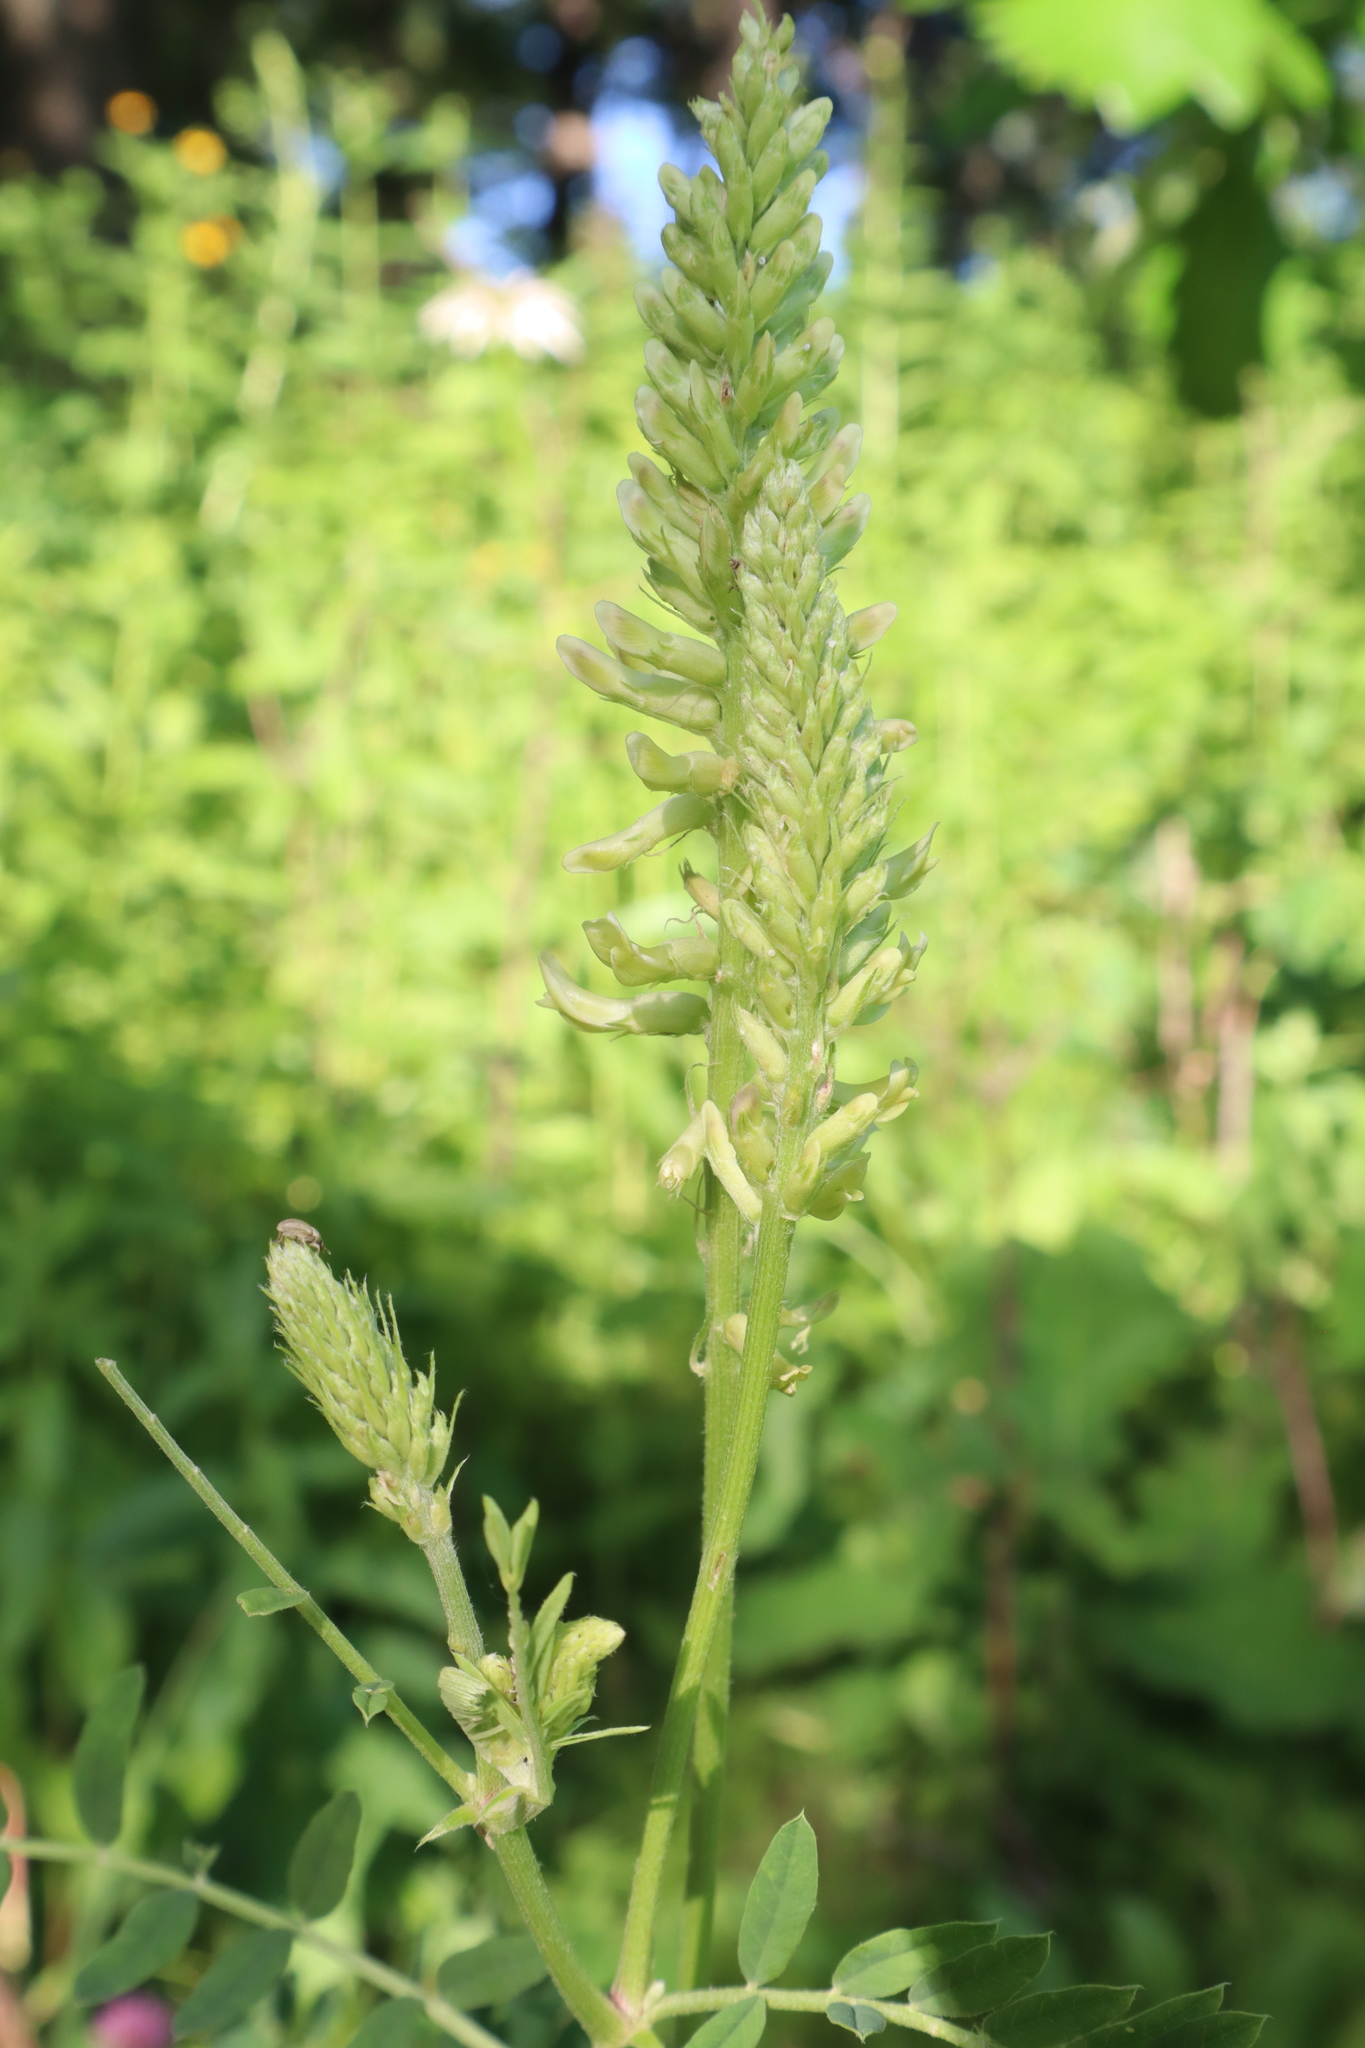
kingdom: Plantae
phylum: Tracheophyta
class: Magnoliopsida
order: Fabales
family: Fabaceae
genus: Astragalus
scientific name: Astragalus canadensis
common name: Canada milk-vetch
